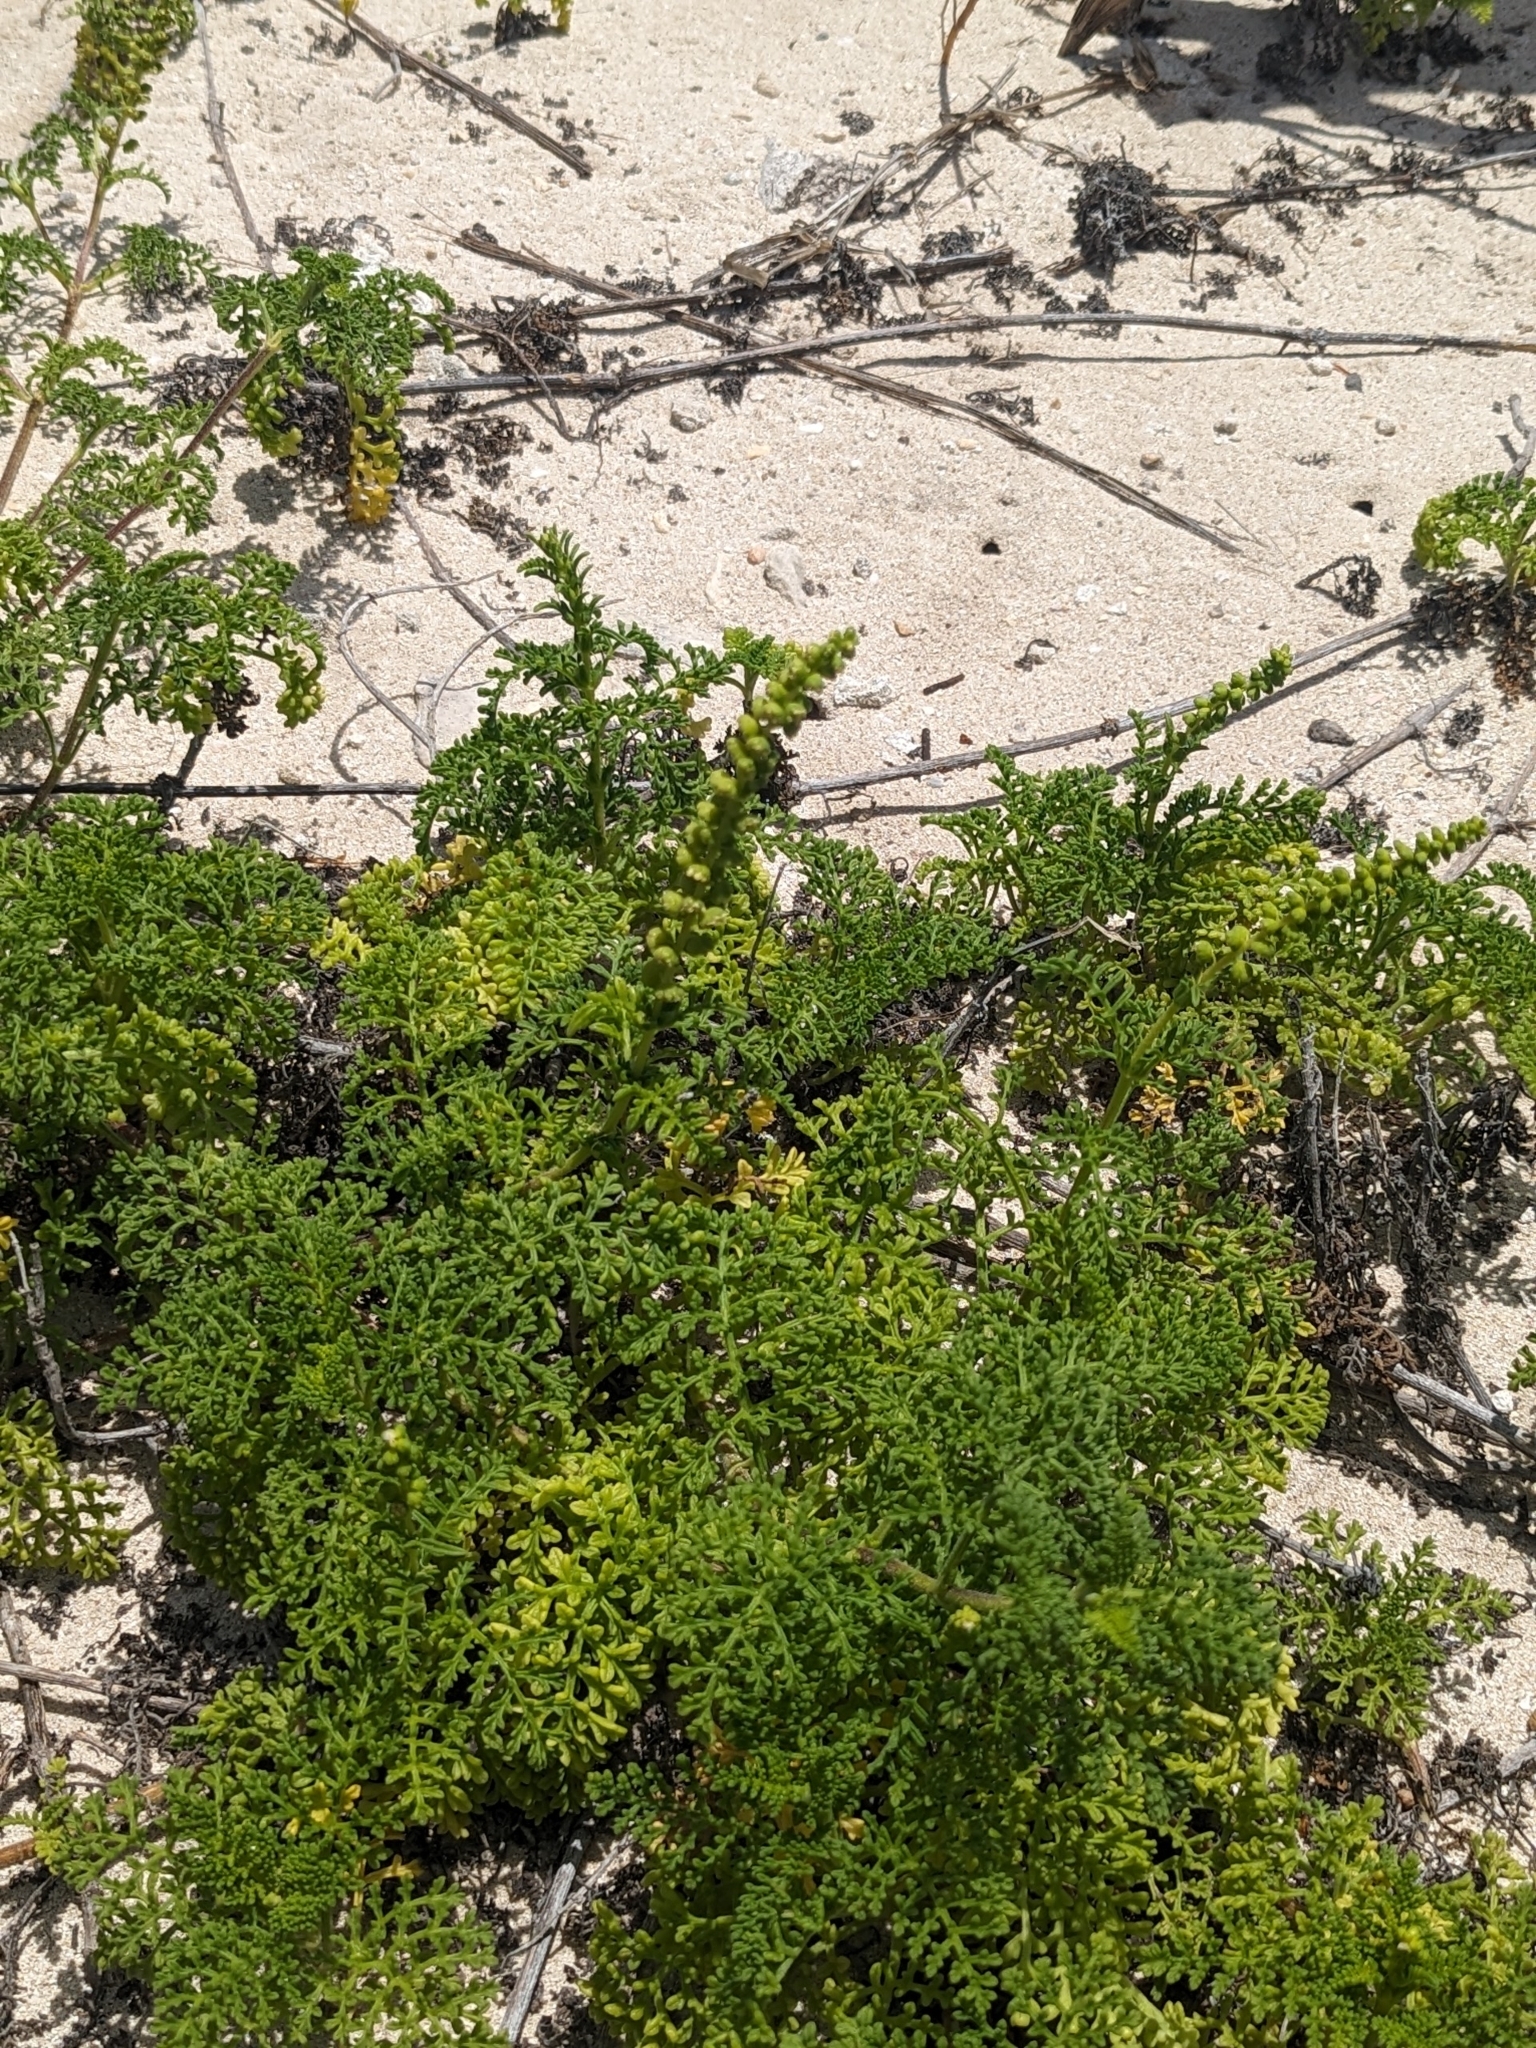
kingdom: Plantae
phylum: Tracheophyta
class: Magnoliopsida
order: Asterales
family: Asteraceae
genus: Ambrosia
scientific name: Ambrosia hispida
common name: Coastal ragweed
